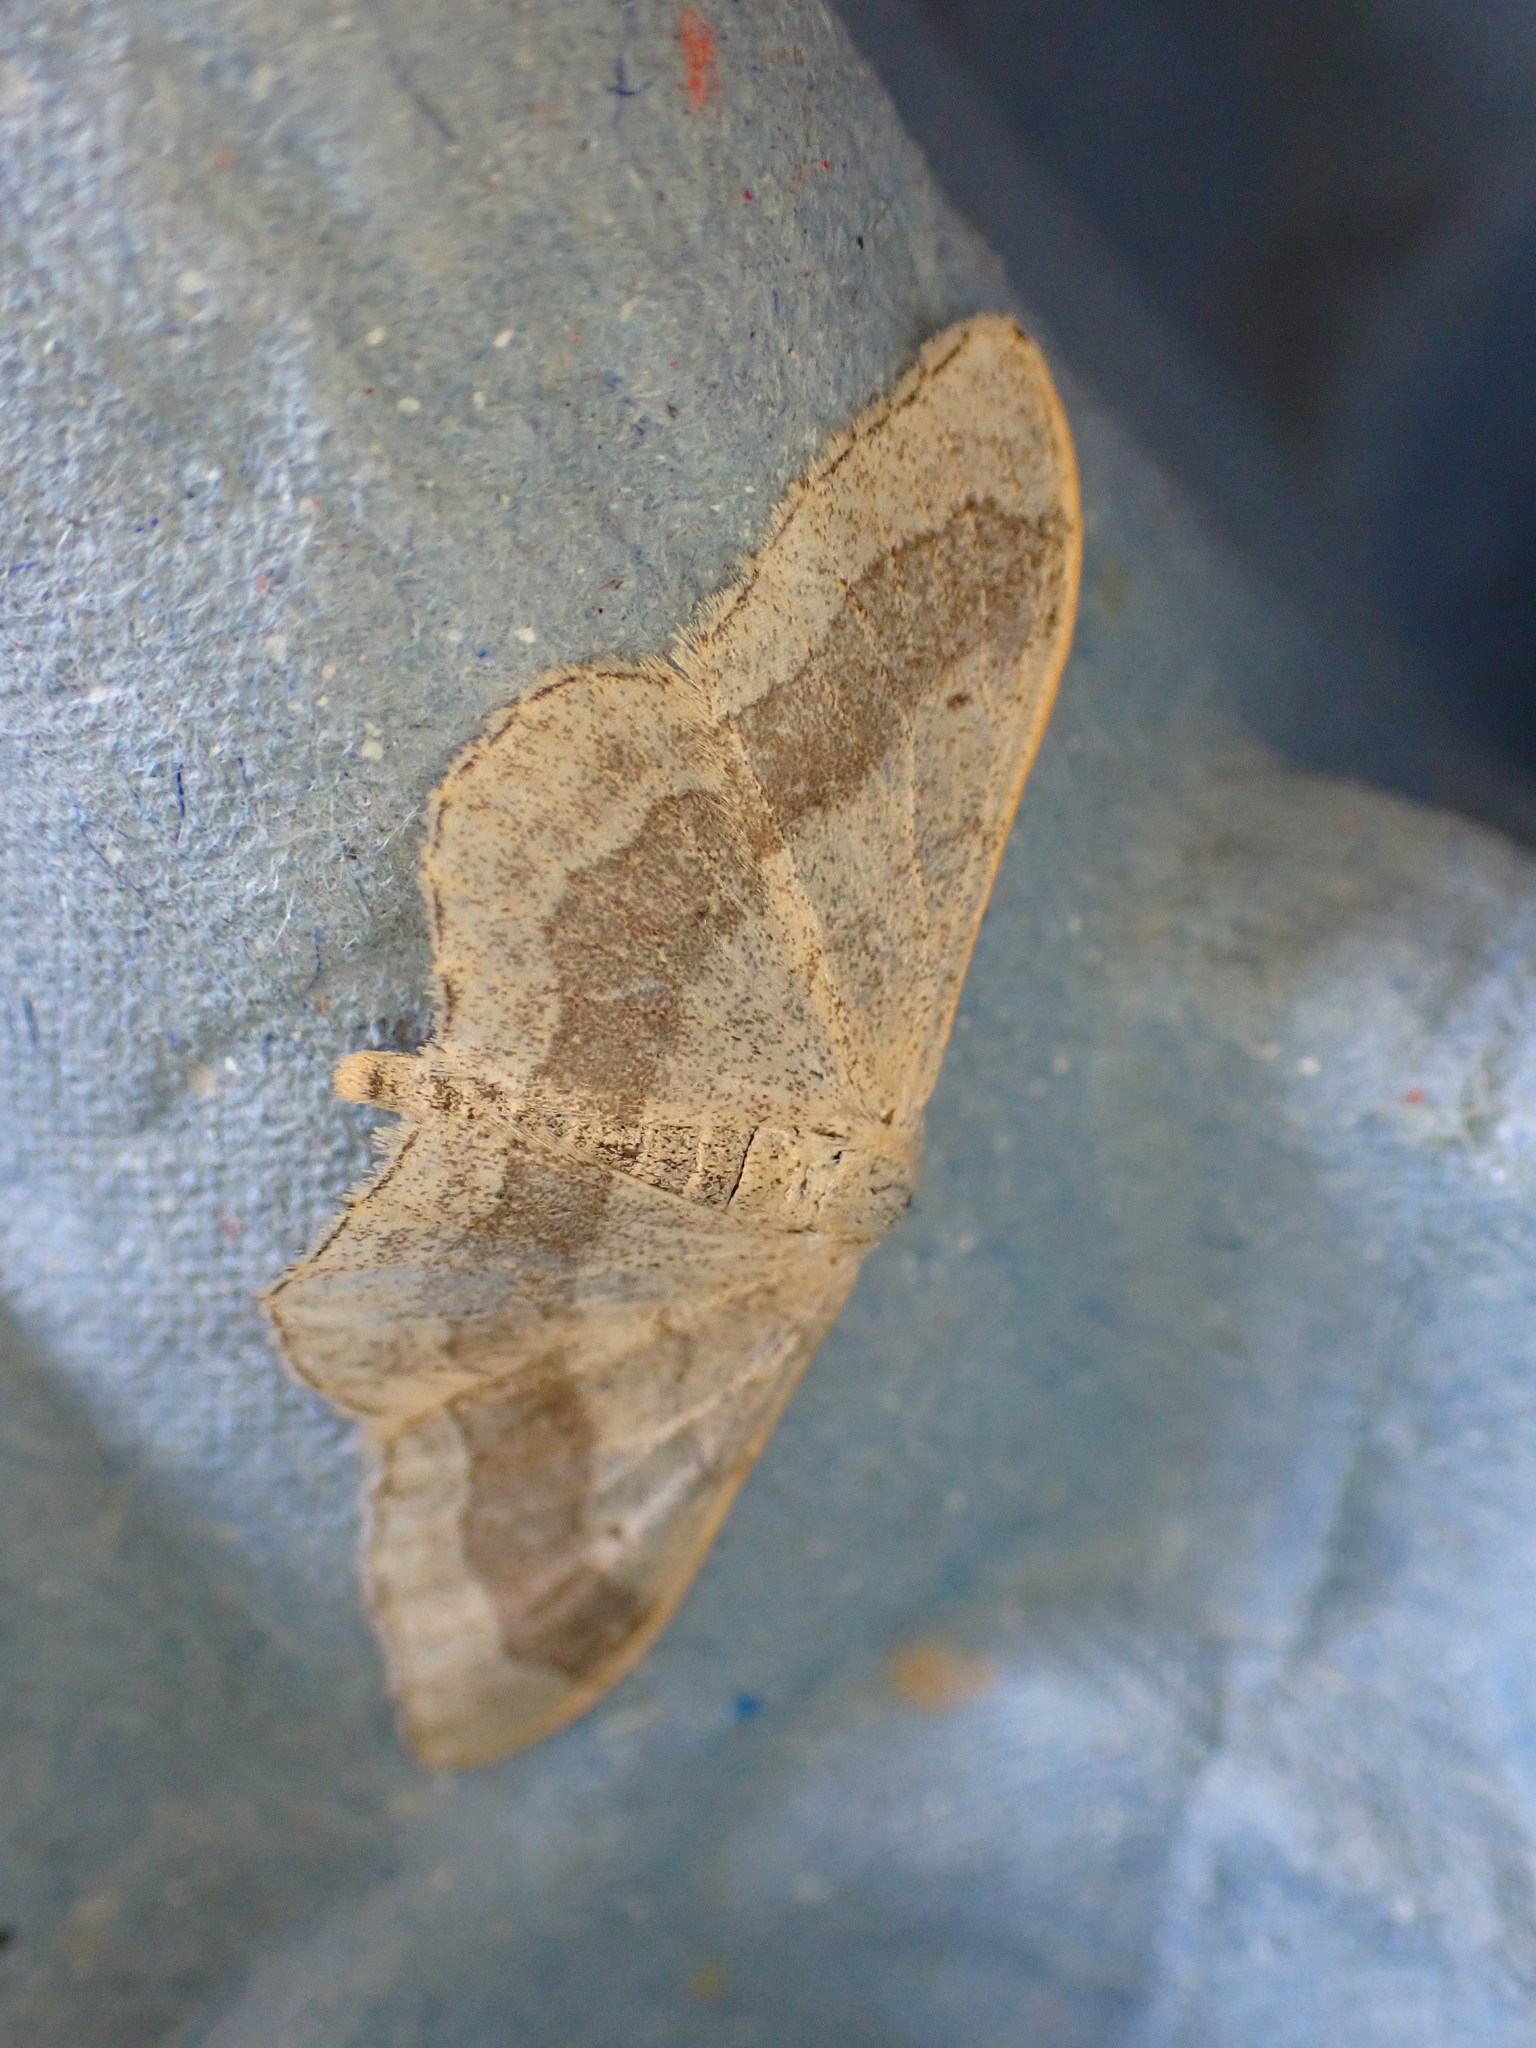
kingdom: Animalia
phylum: Arthropoda
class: Insecta
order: Lepidoptera
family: Geometridae
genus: Idaea
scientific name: Idaea aversata
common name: Riband wave
